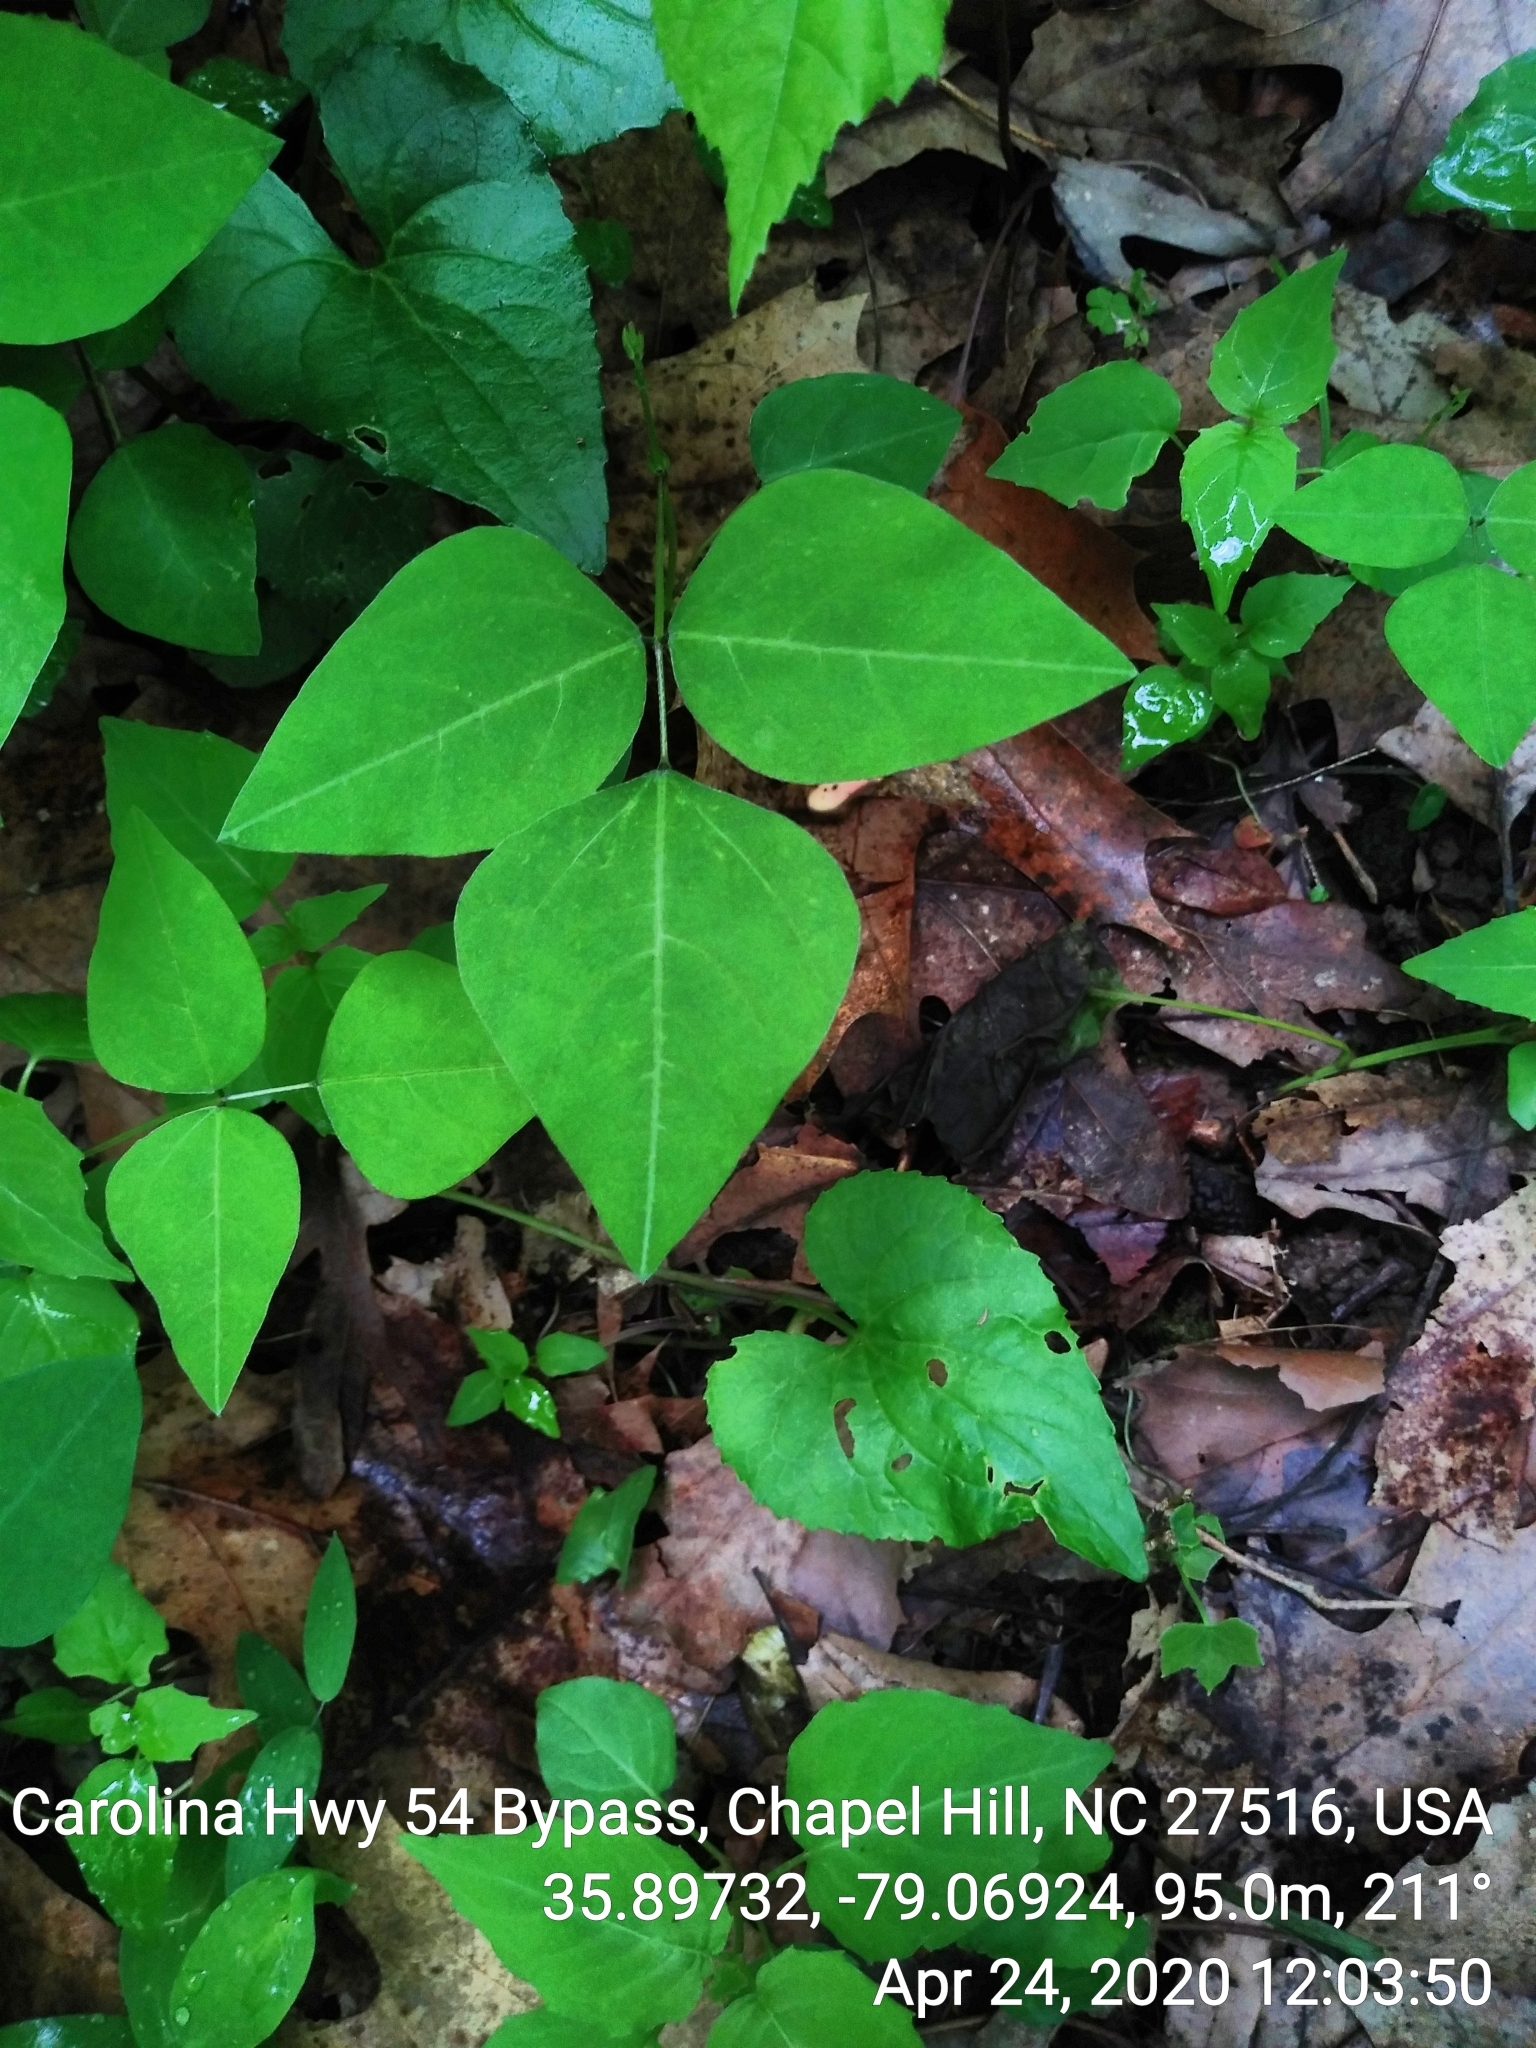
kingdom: Plantae
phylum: Tracheophyta
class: Magnoliopsida
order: Fabales
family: Fabaceae
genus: Amphicarpaea
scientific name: Amphicarpaea bracteata
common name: American hog peanut
